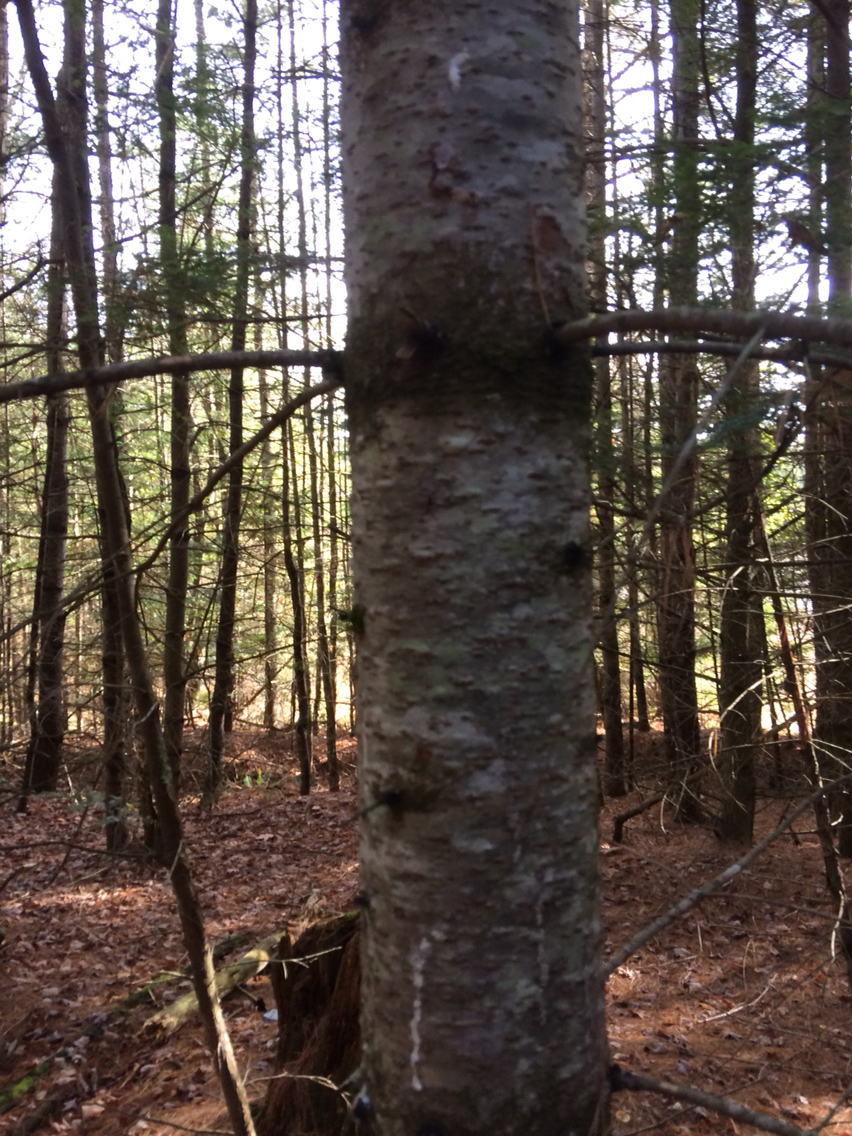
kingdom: Plantae
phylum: Tracheophyta
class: Pinopsida
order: Pinales
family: Pinaceae
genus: Abies
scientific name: Abies balsamea
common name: Balsam fir
